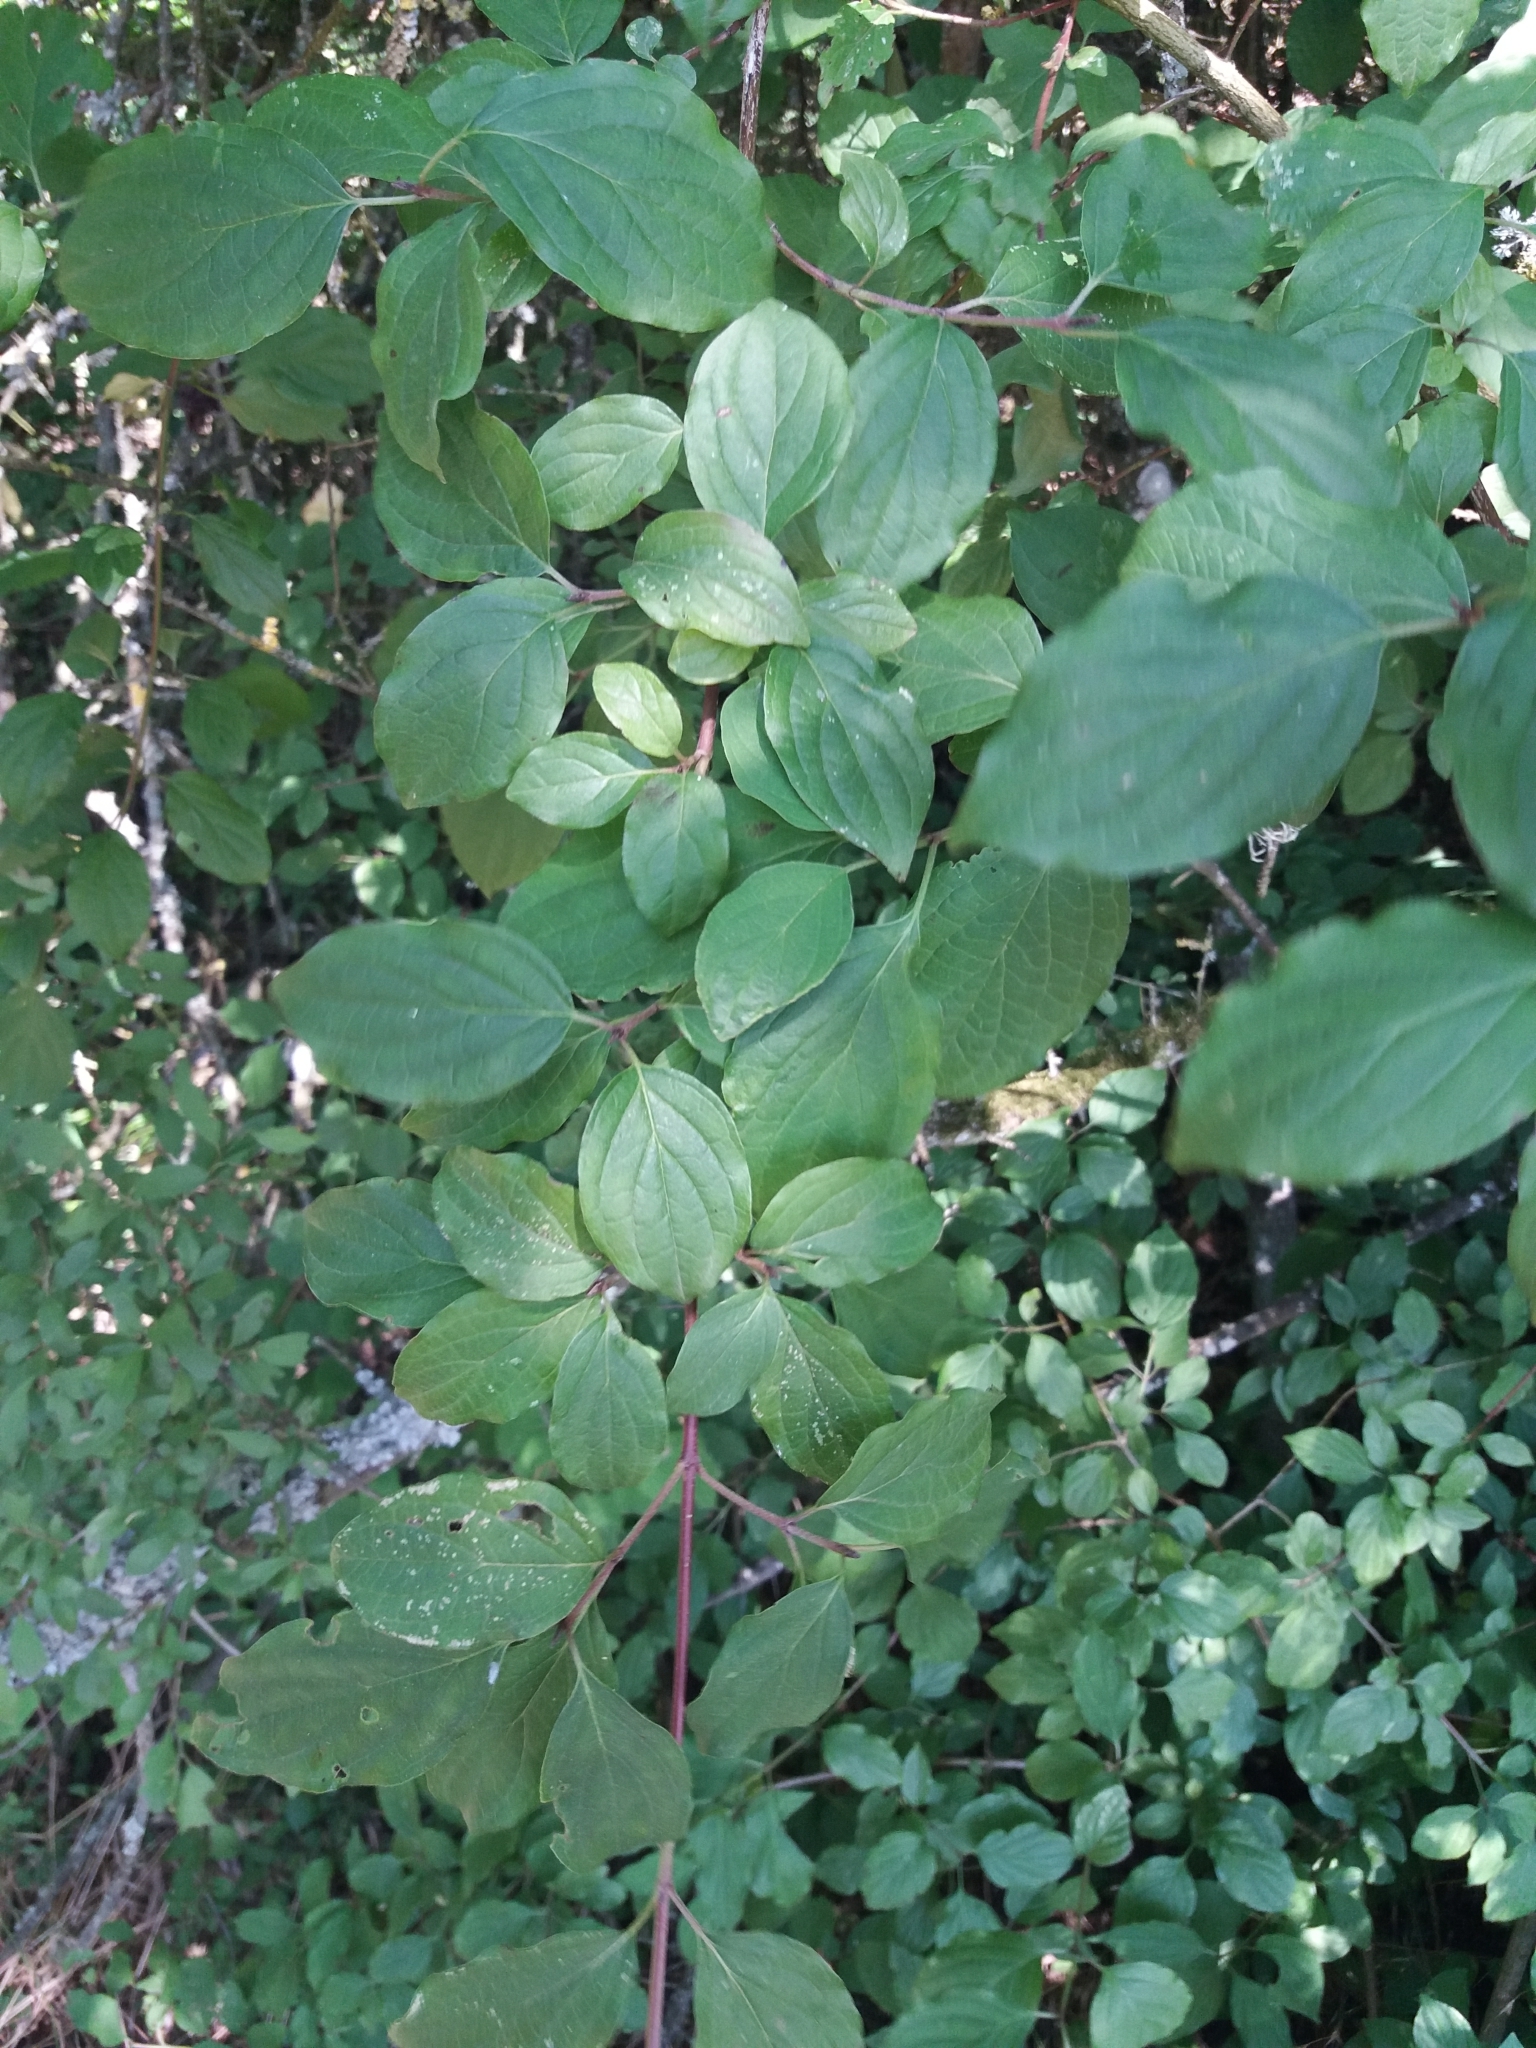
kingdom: Plantae
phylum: Tracheophyta
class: Magnoliopsida
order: Cornales
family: Cornaceae
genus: Cornus
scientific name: Cornus sanguinea
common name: Dogwood
